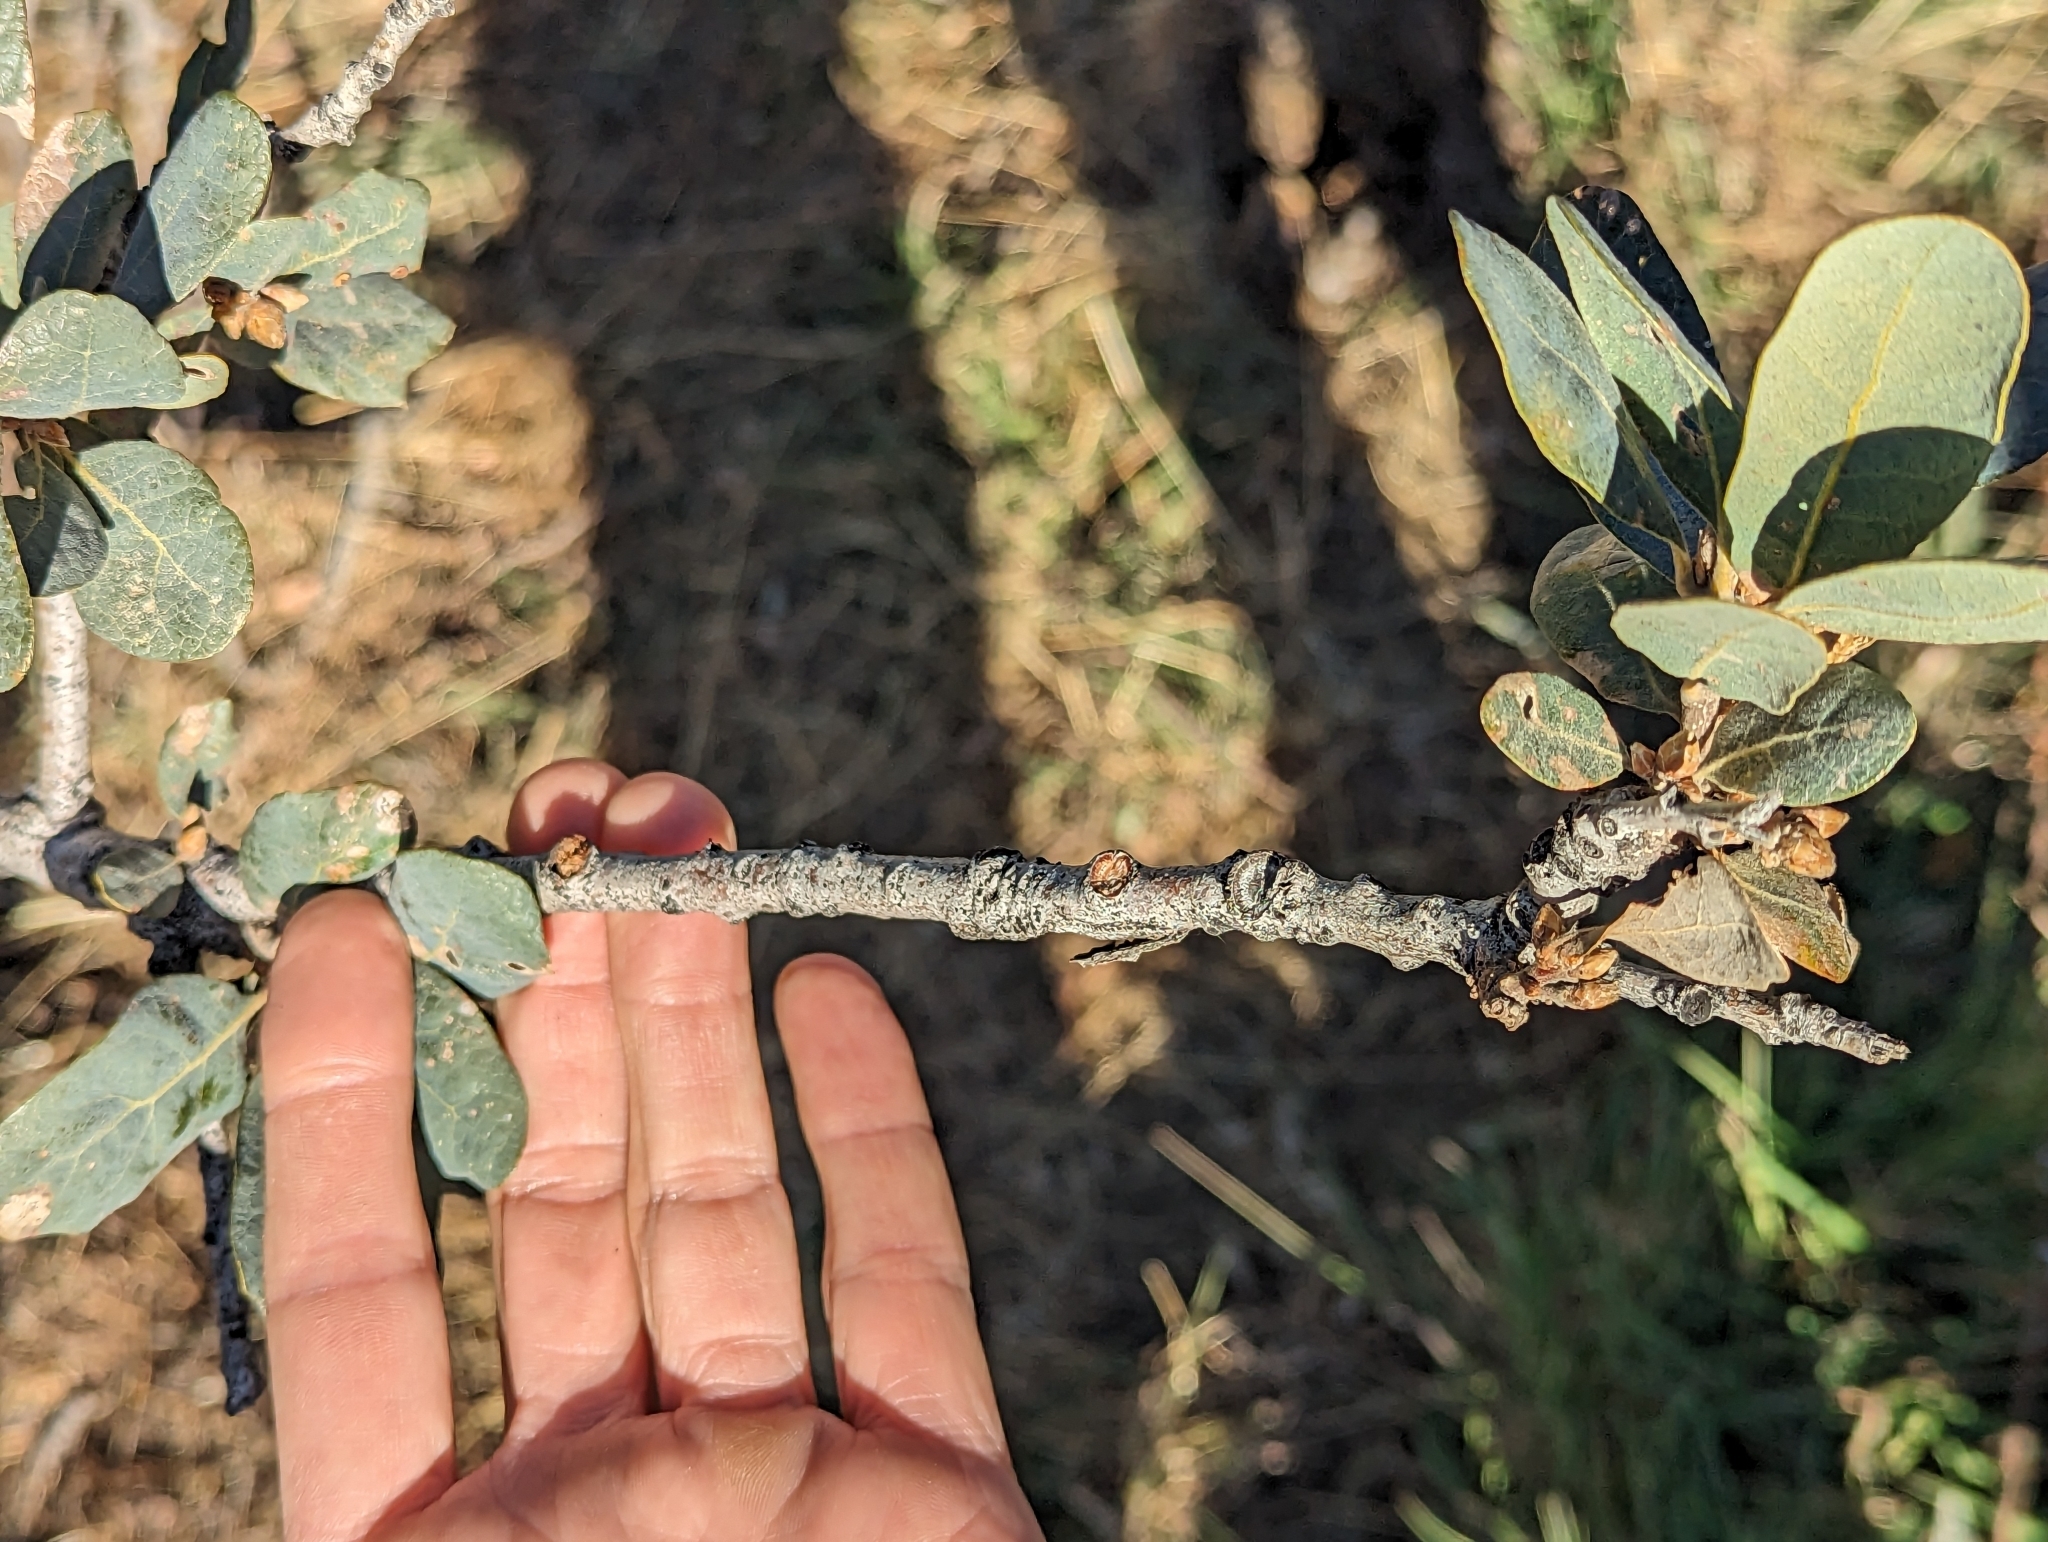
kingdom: Plantae
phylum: Tracheophyta
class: Magnoliopsida
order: Fagales
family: Fagaceae
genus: Quercus
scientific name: Quercus douglasii
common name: Blue oak
